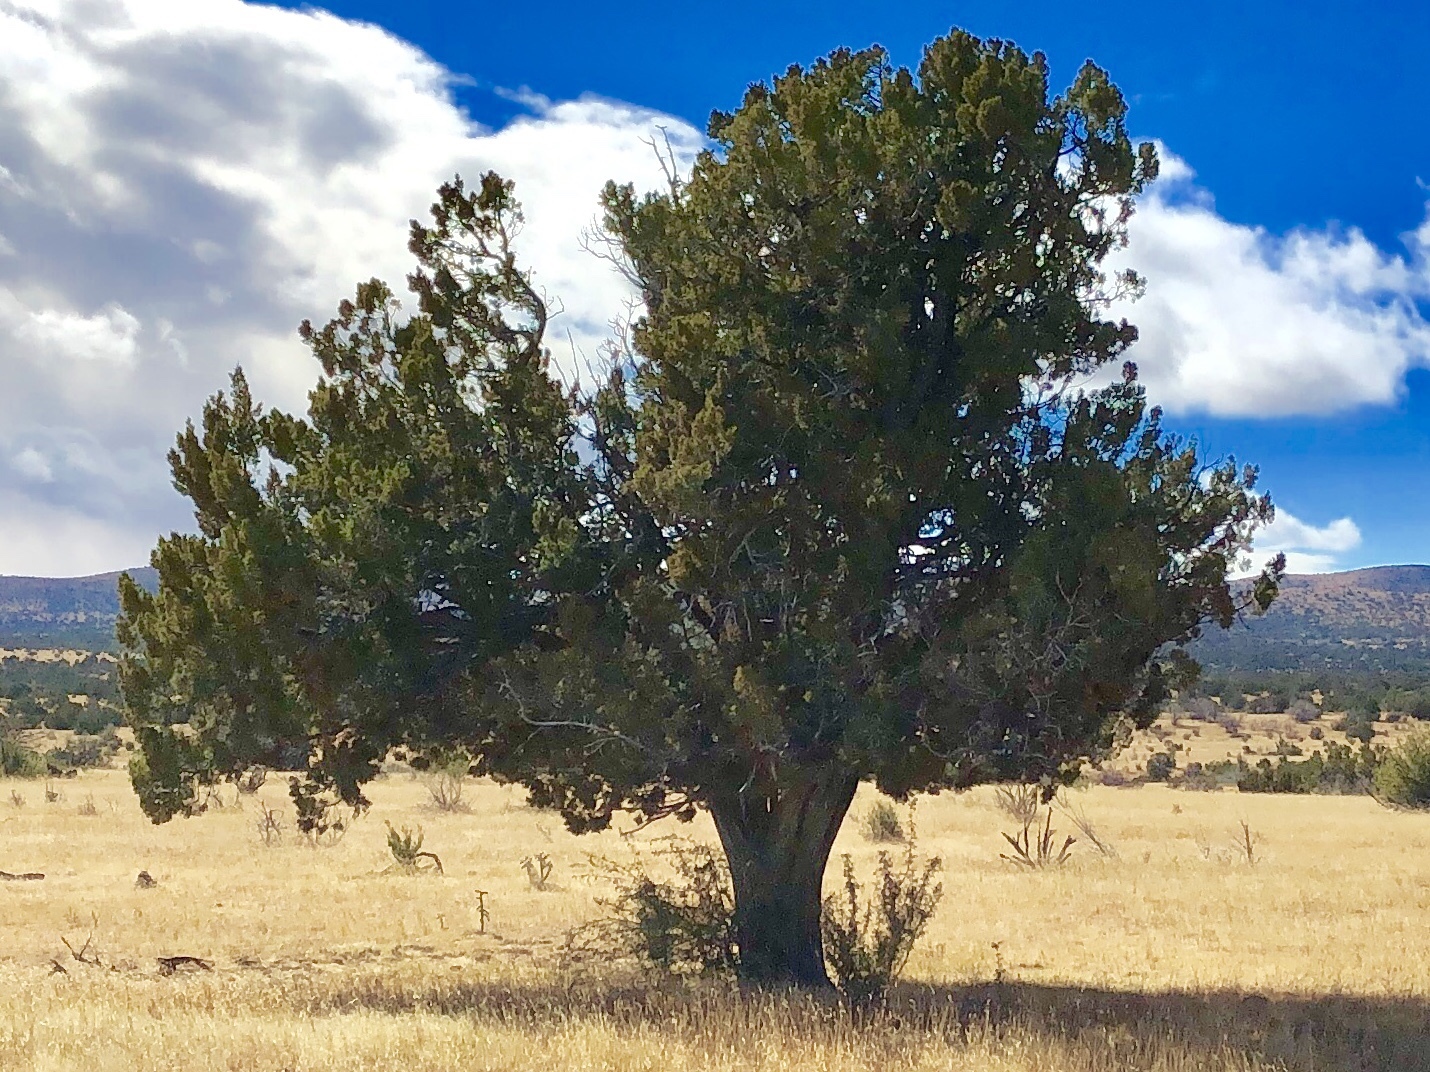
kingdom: Plantae
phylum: Tracheophyta
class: Pinopsida
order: Pinales
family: Cupressaceae
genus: Juniperus
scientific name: Juniperus deppeana
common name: Alligator juniper
